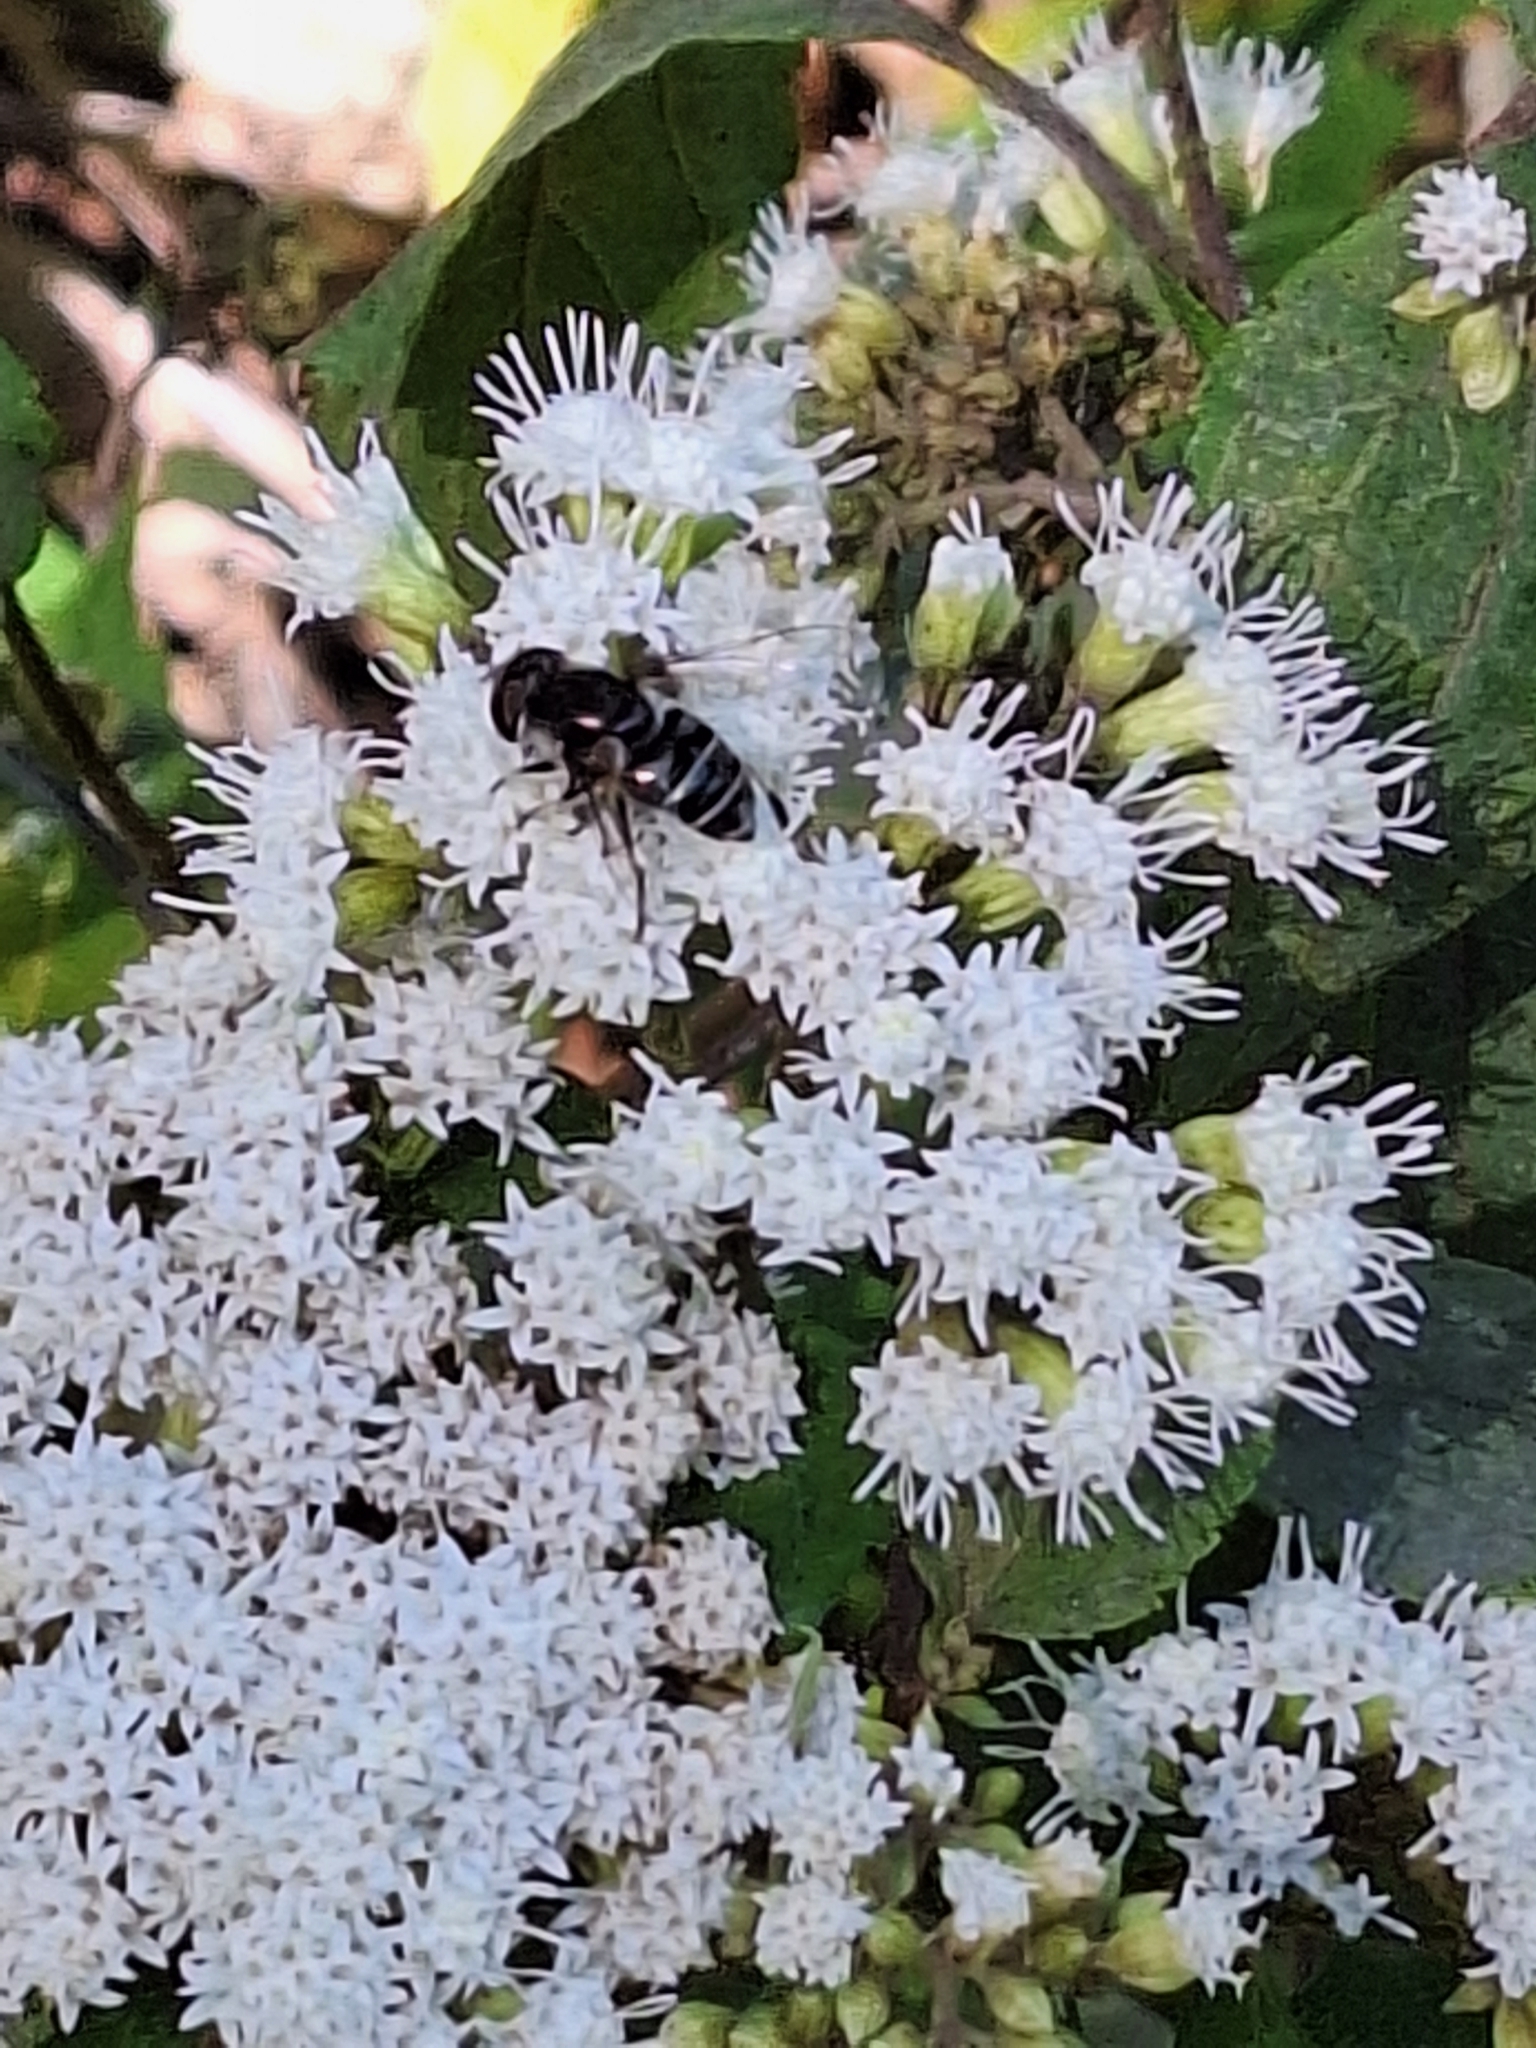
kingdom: Animalia
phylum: Arthropoda
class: Insecta
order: Diptera
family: Syrphidae
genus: Eristalis
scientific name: Eristalis dimidiata
